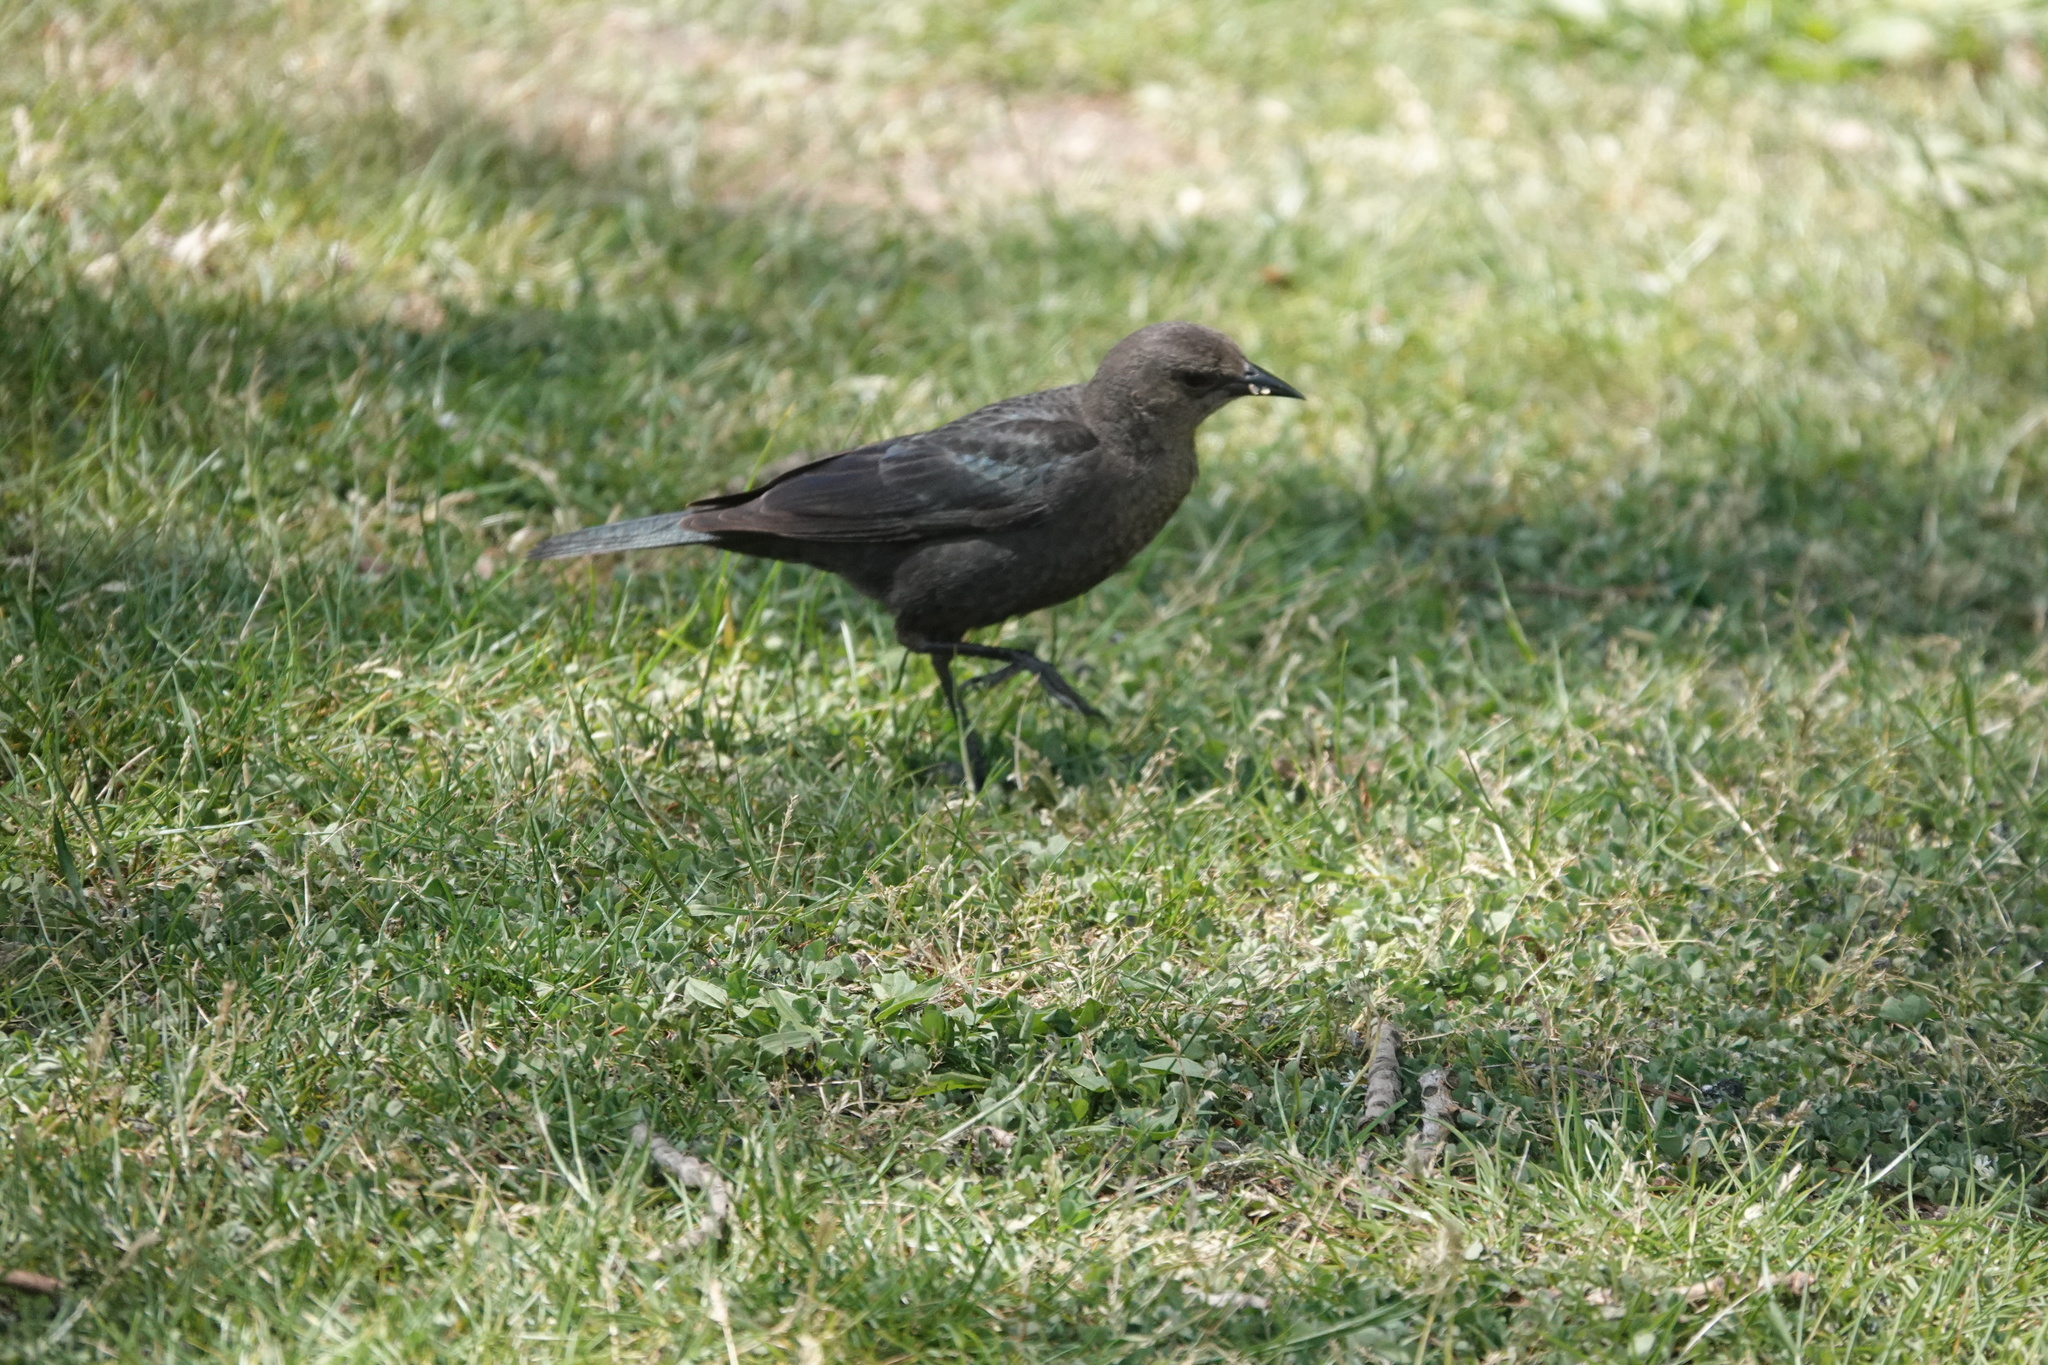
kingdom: Animalia
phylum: Chordata
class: Aves
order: Passeriformes
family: Icteridae
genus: Euphagus
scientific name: Euphagus cyanocephalus
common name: Brewer's blackbird
